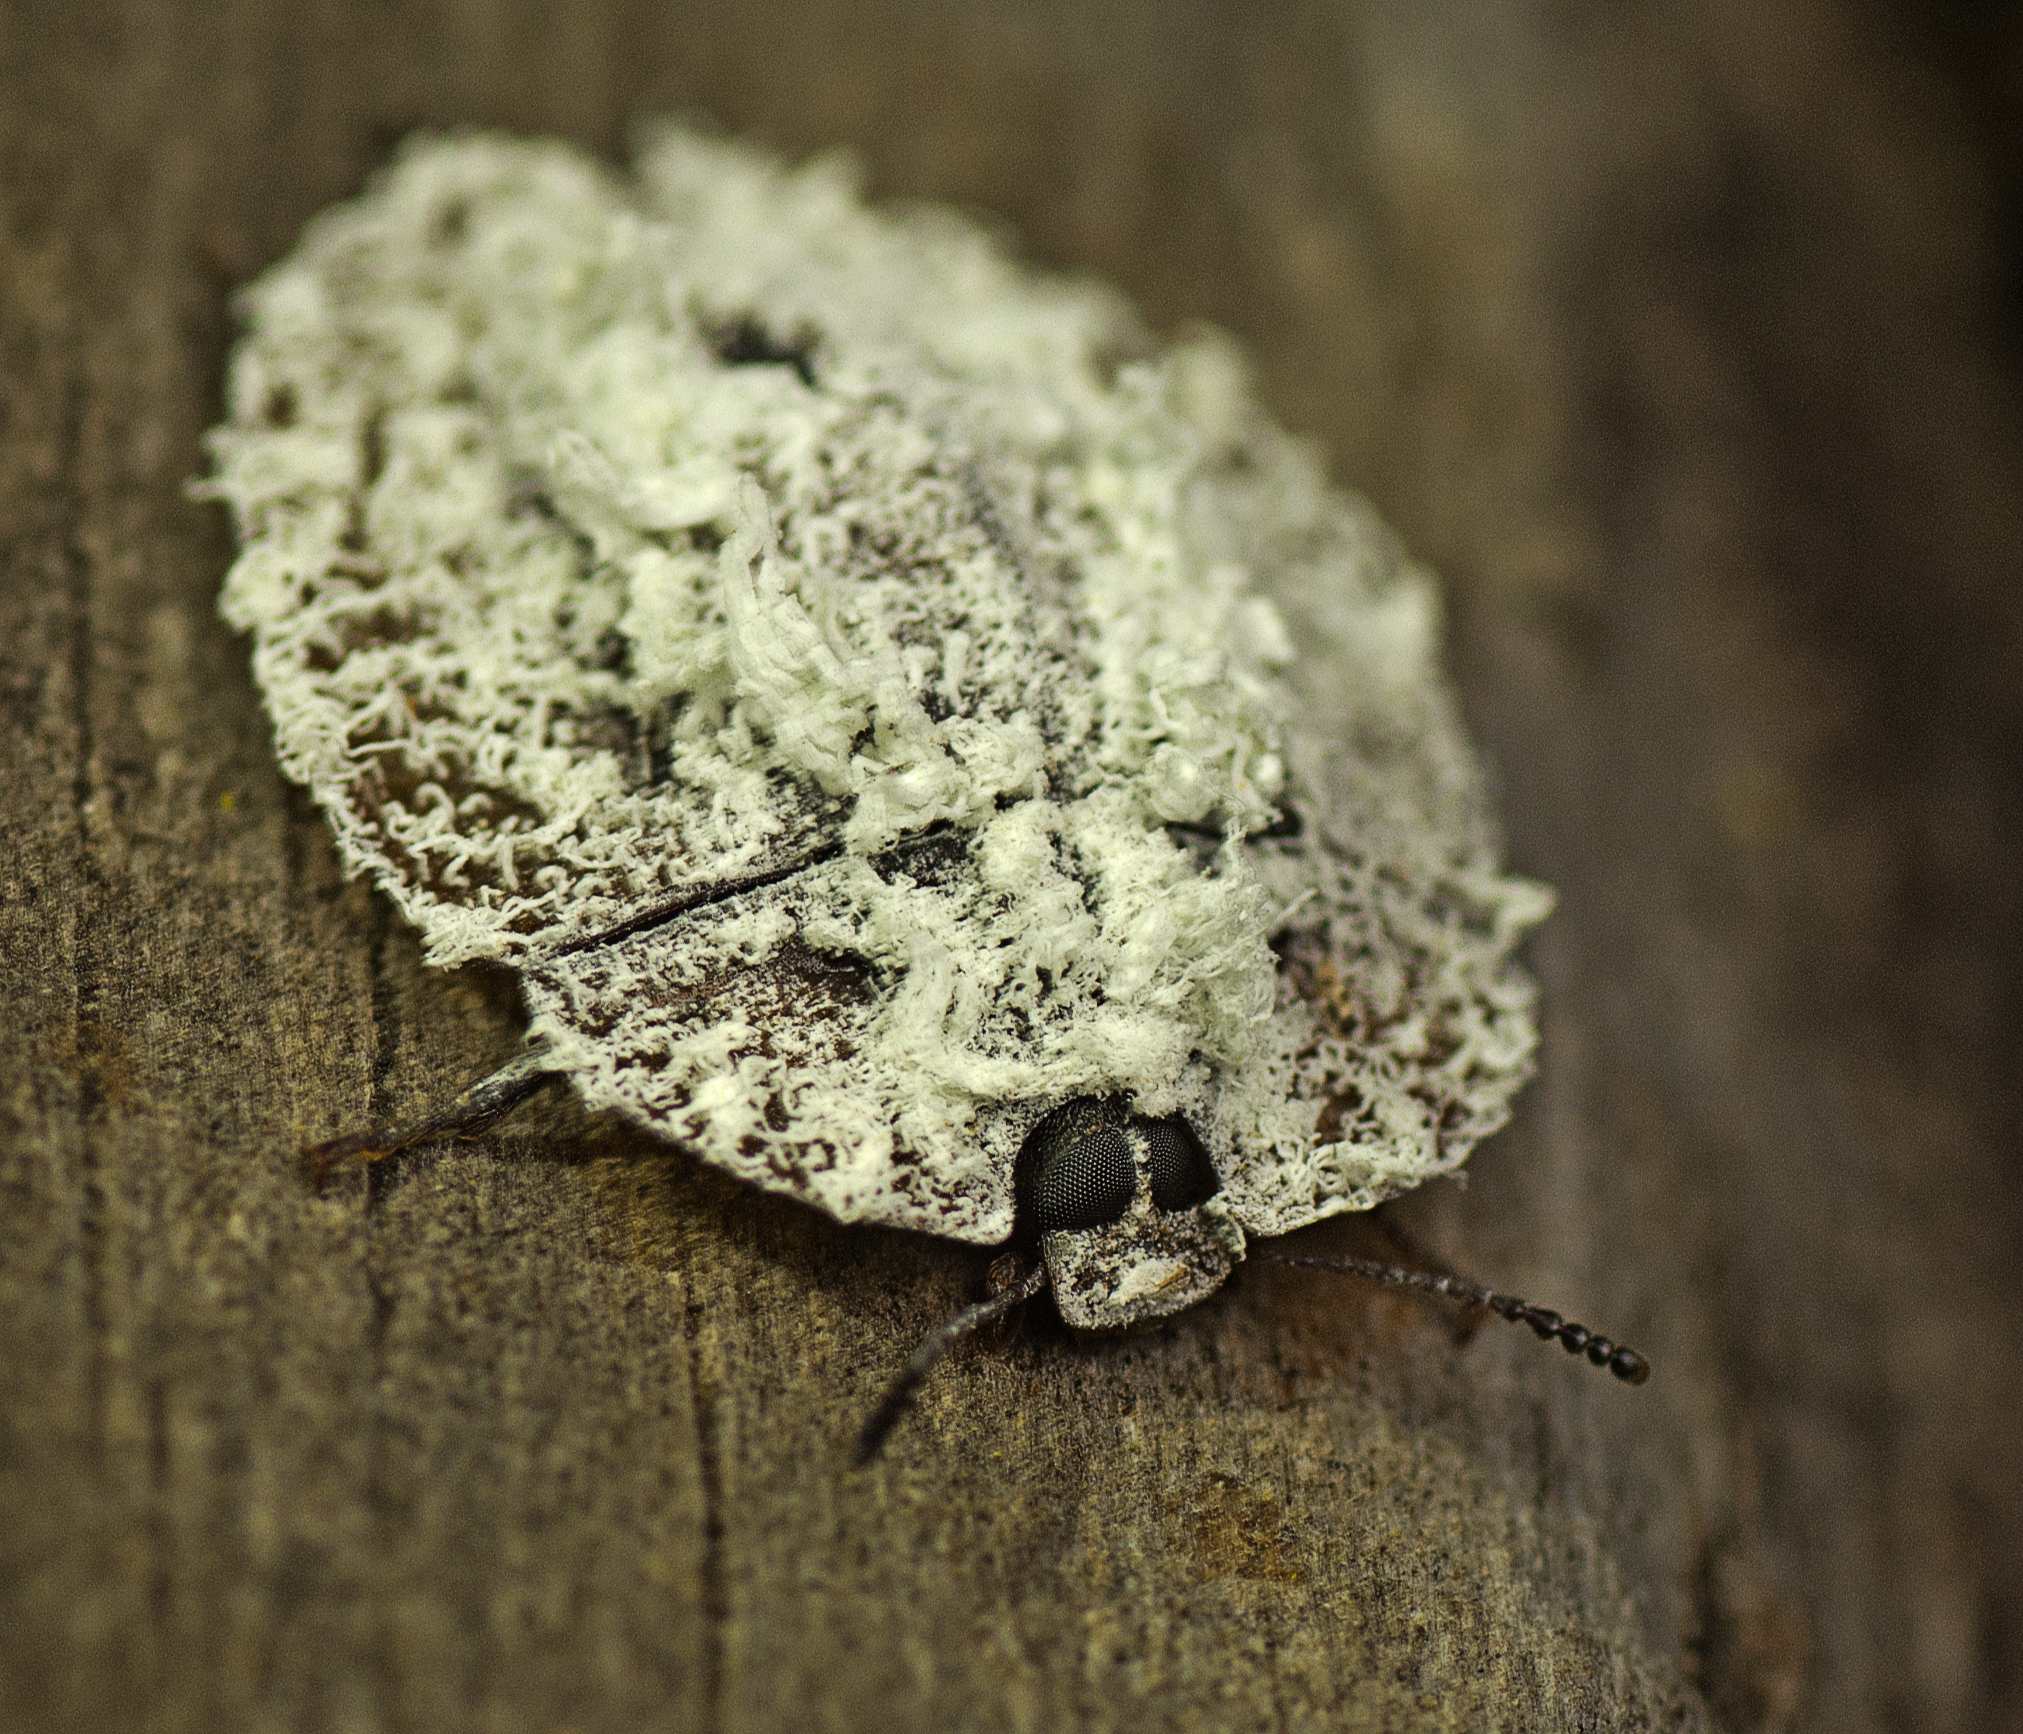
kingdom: Animalia
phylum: Arthropoda
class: Insecta
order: Coleoptera
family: Tenebrionidae
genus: Emcephalus
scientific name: Emcephalus
